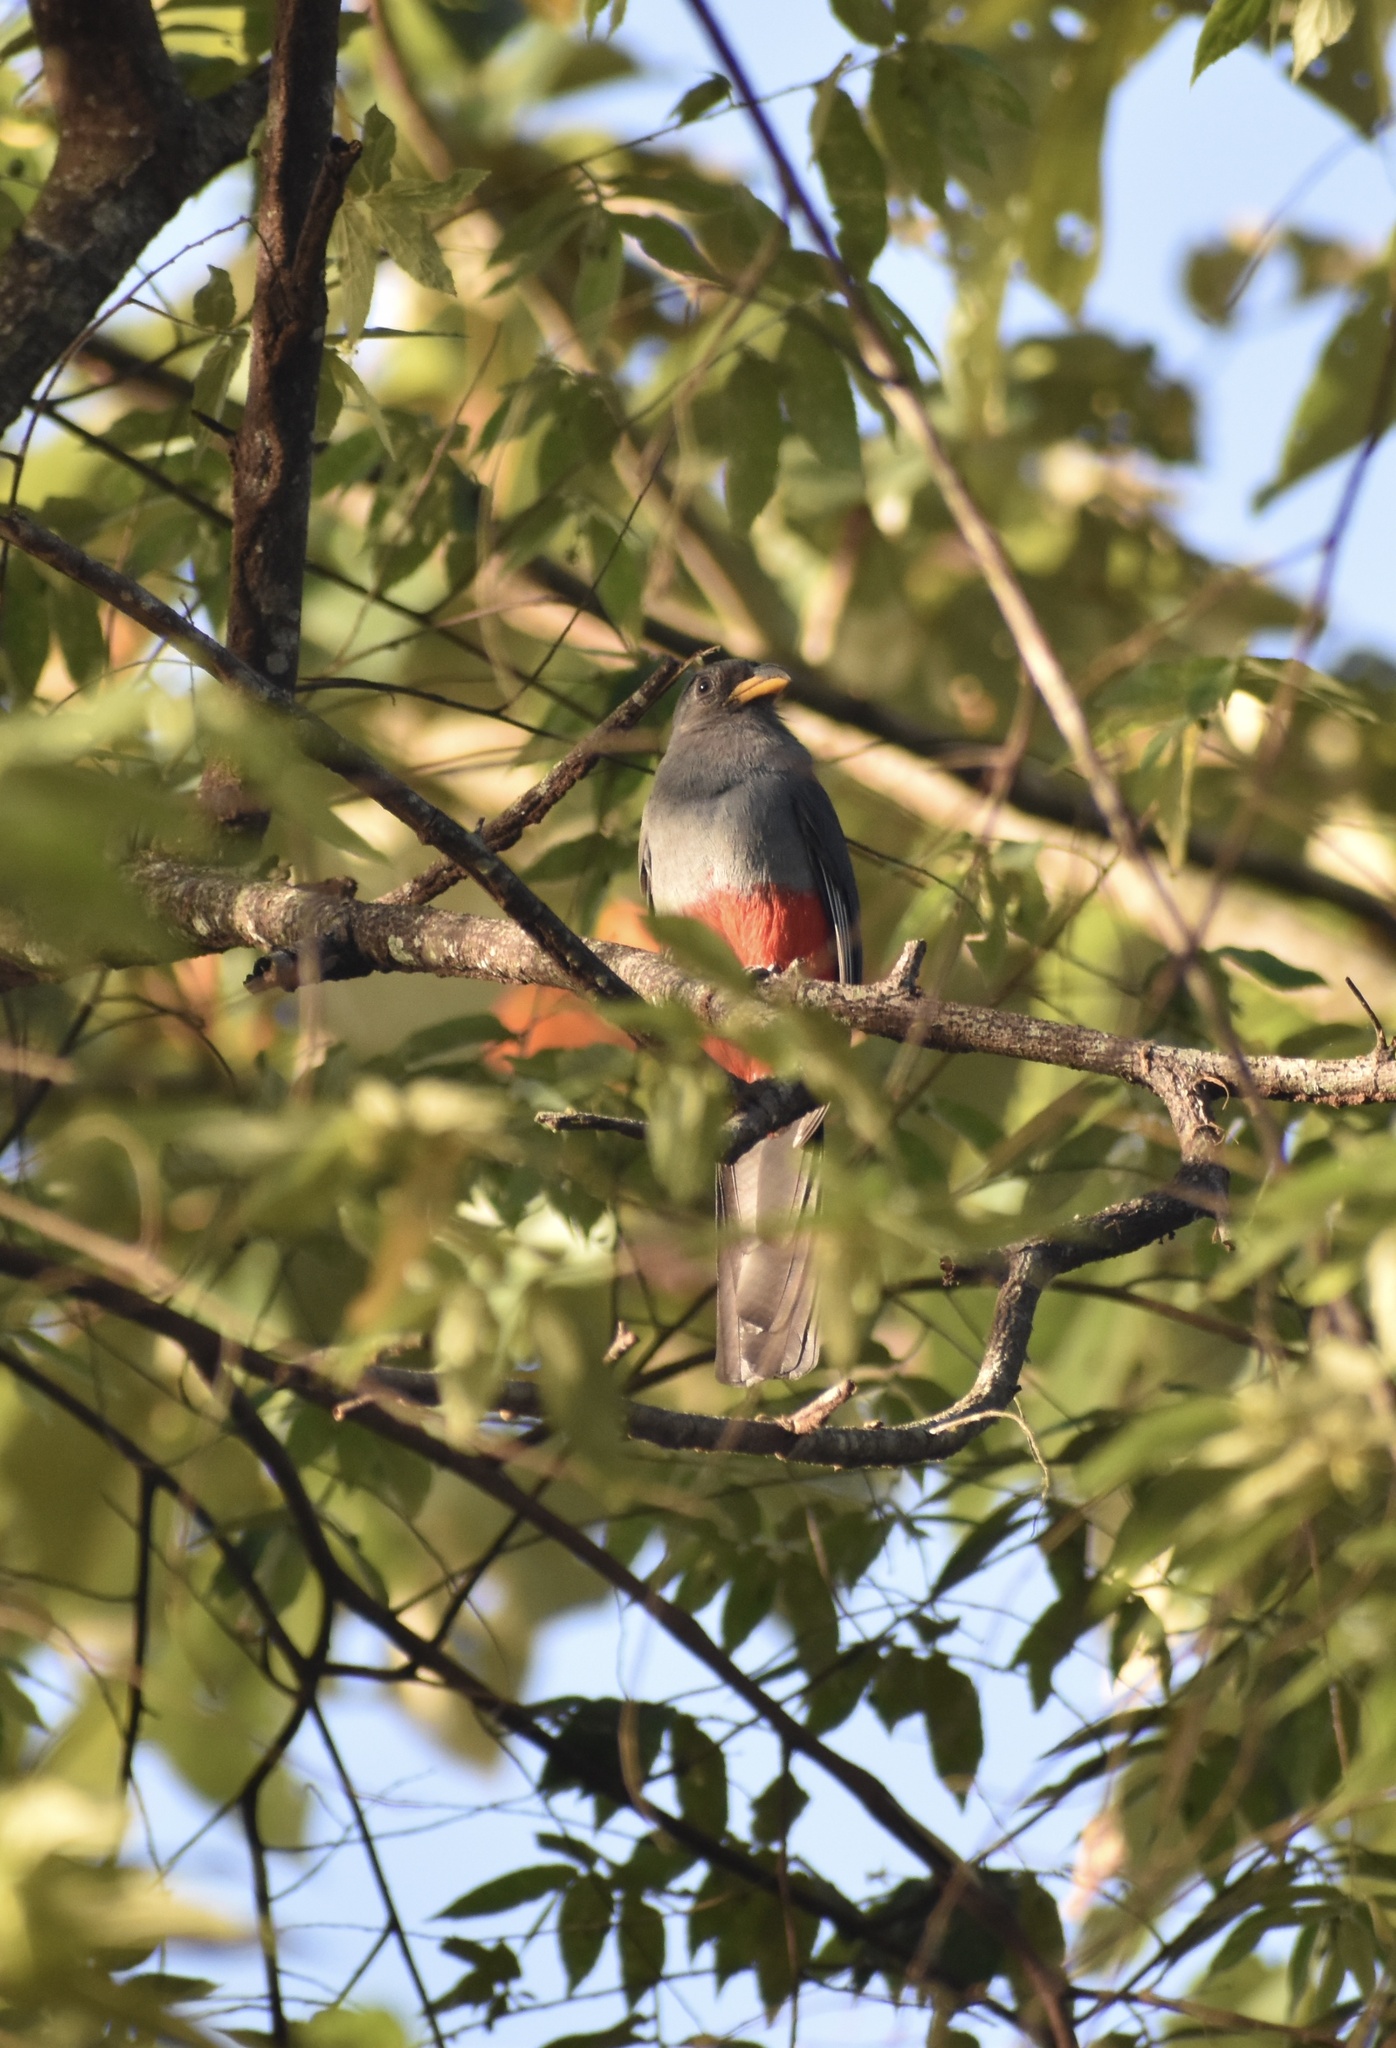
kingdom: Animalia
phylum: Chordata
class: Aves
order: Trogoniformes
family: Trogonidae
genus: Trogon
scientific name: Trogon melanurus
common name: Black-tailed trogon
